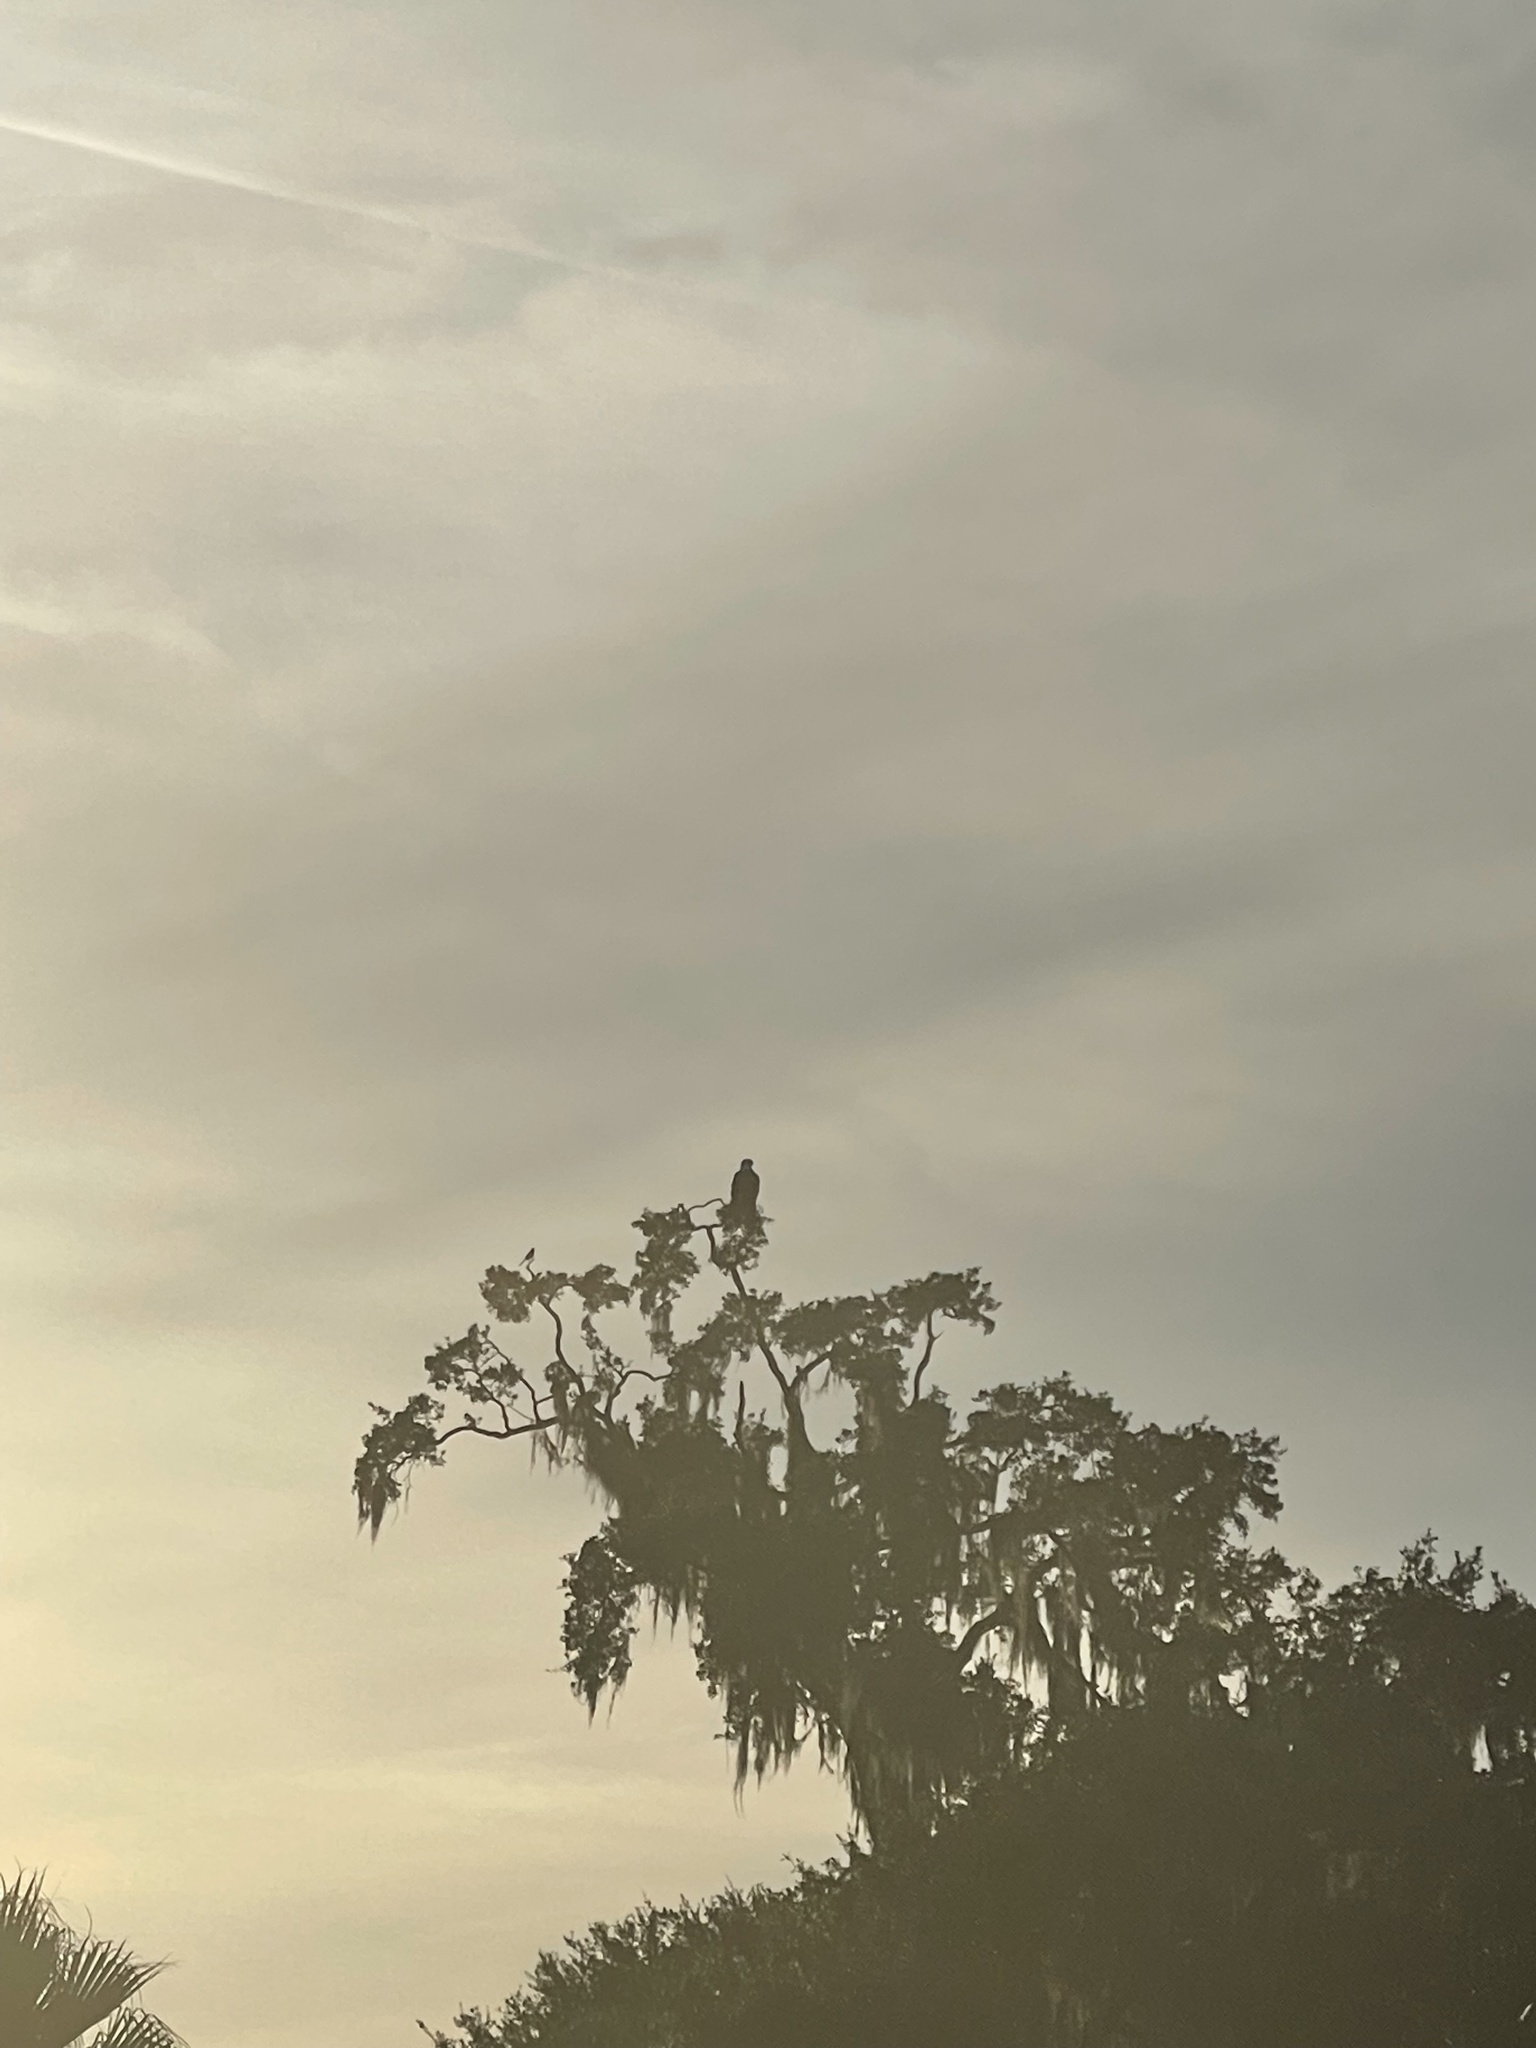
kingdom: Animalia
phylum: Chordata
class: Aves
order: Accipitriformes
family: Accipitridae
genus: Haliaeetus
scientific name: Haliaeetus leucocephalus
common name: Bald eagle
